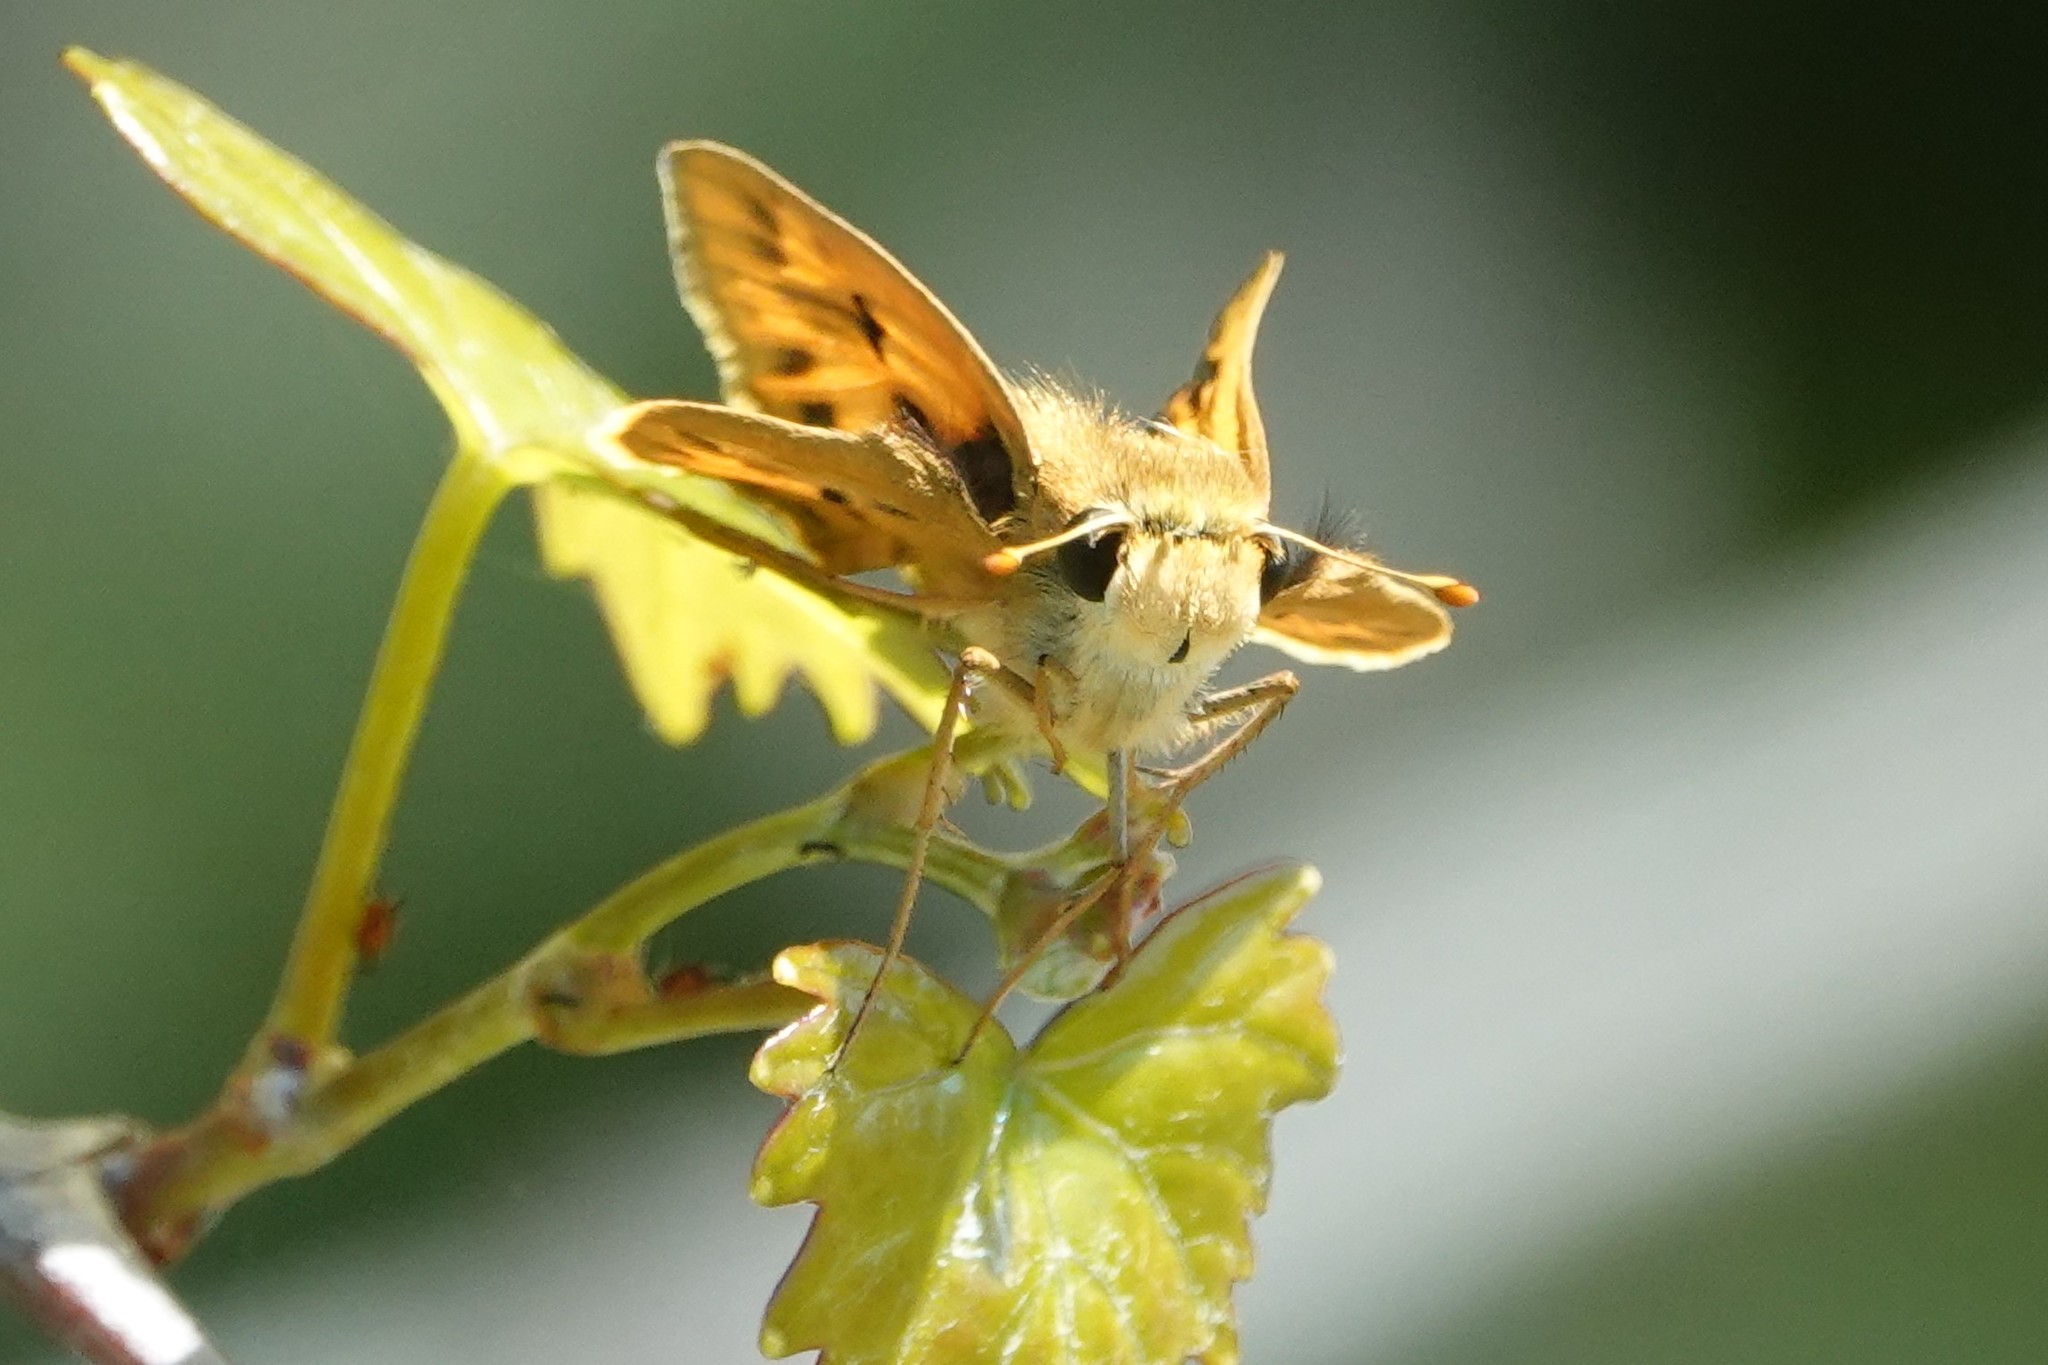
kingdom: Animalia
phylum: Arthropoda
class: Insecta
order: Lepidoptera
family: Hesperiidae
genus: Hylephila
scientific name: Hylephila phyleus
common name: Fiery skipper
